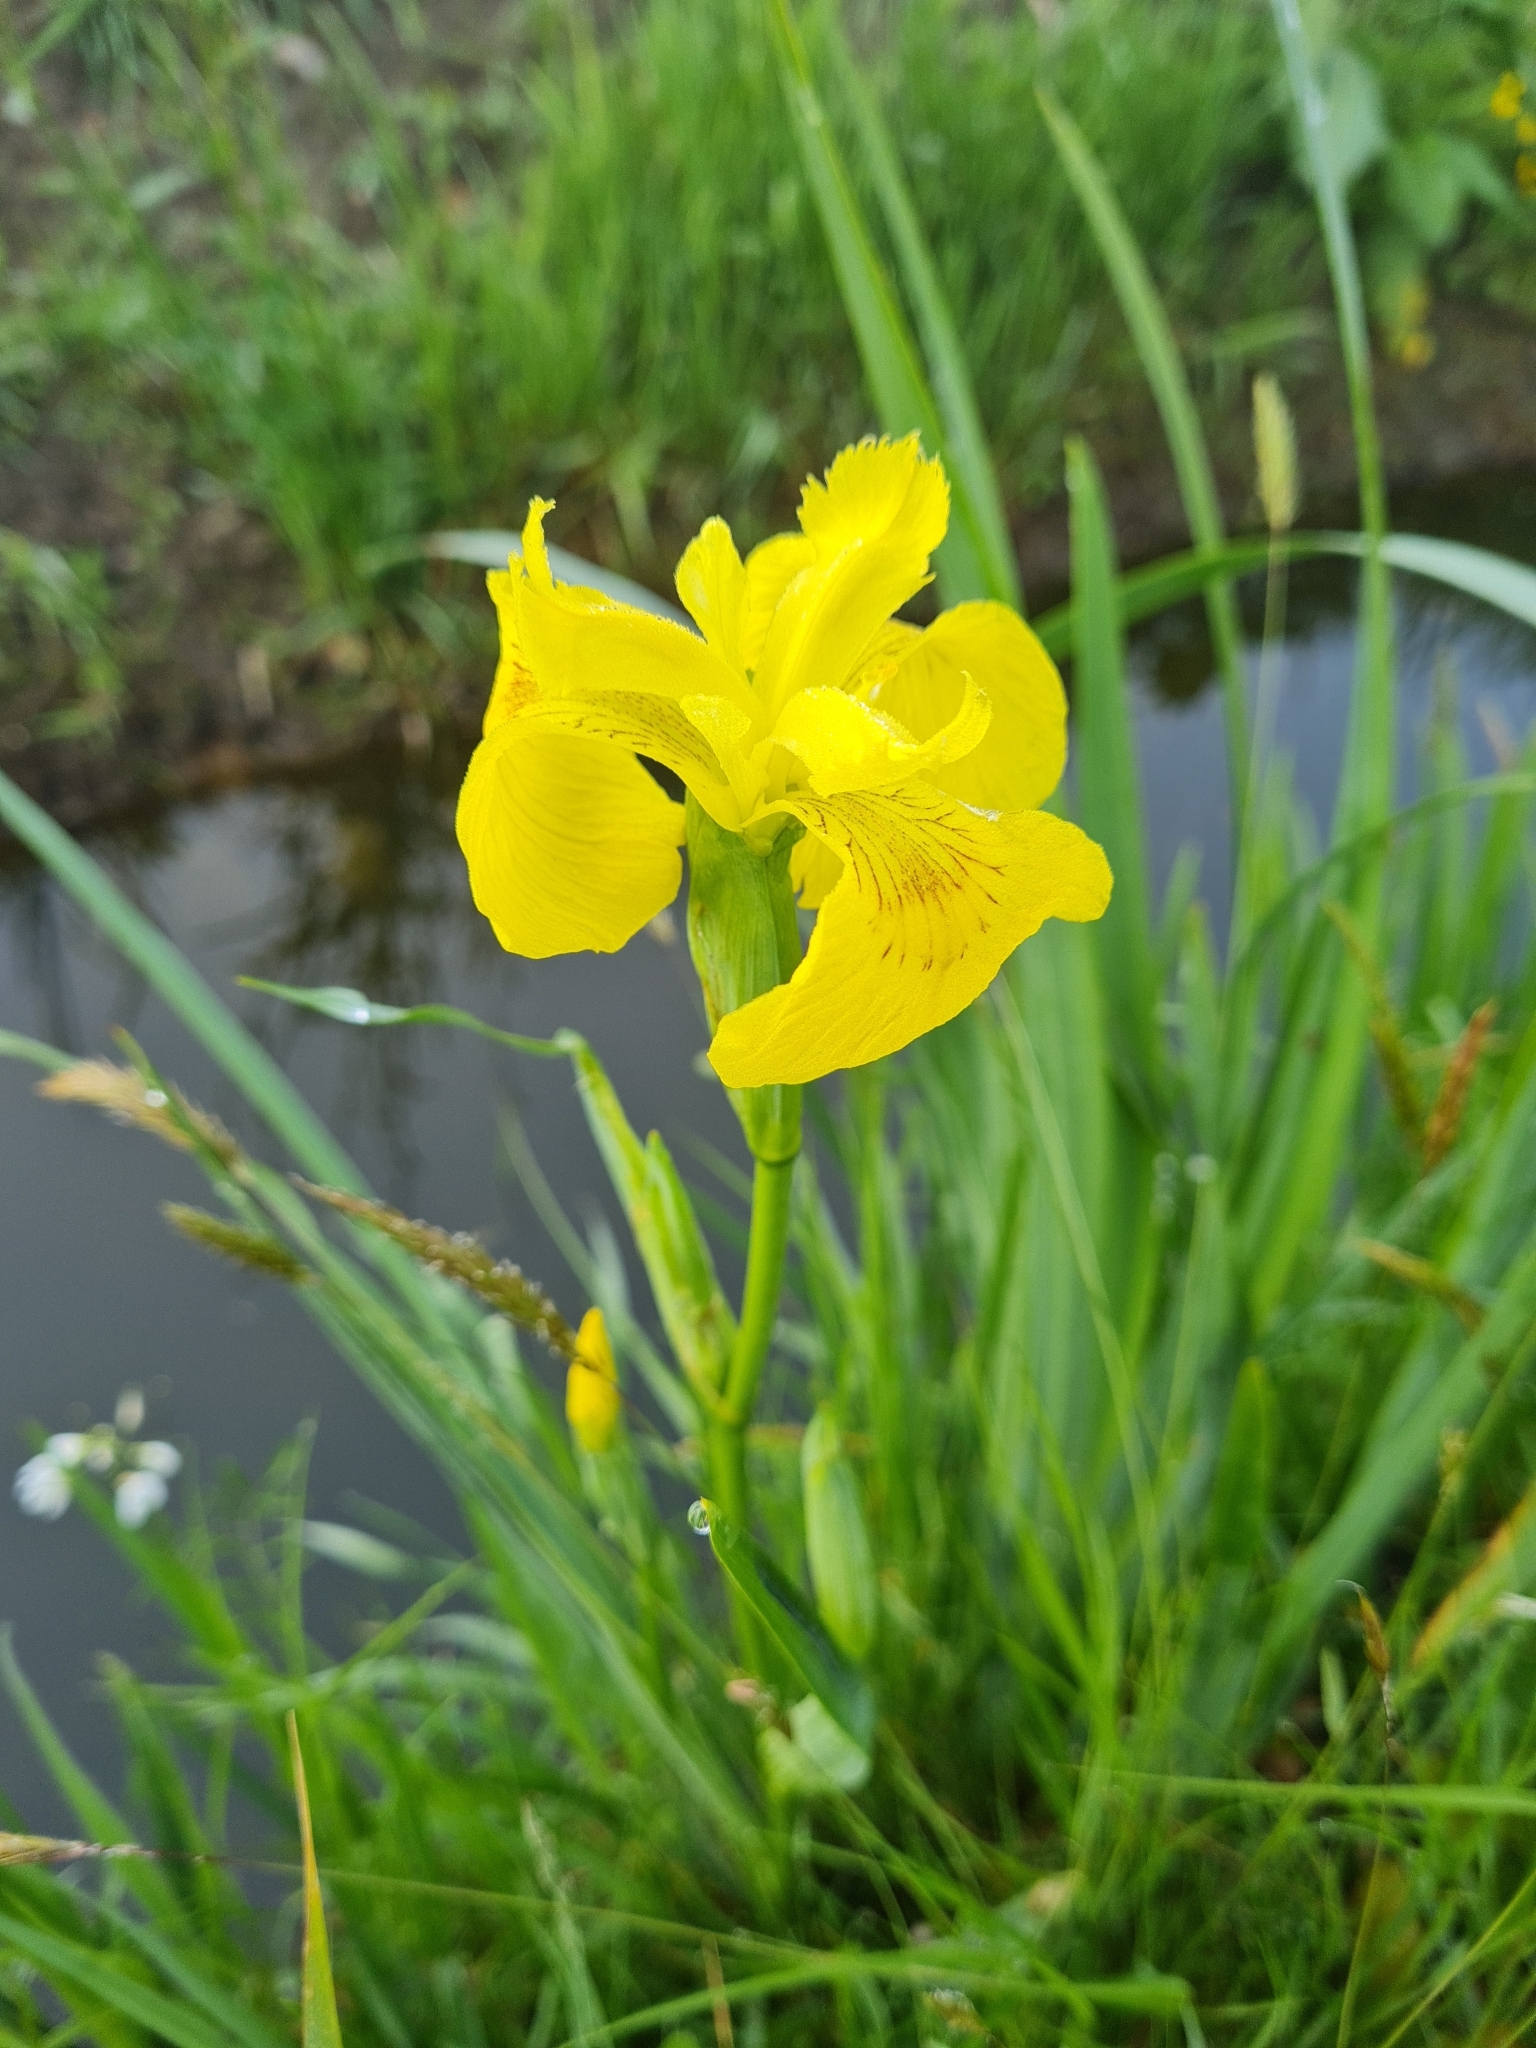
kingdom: Plantae
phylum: Tracheophyta
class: Liliopsida
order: Asparagales
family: Iridaceae
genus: Iris
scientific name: Iris pseudacorus
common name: Yellow flag
